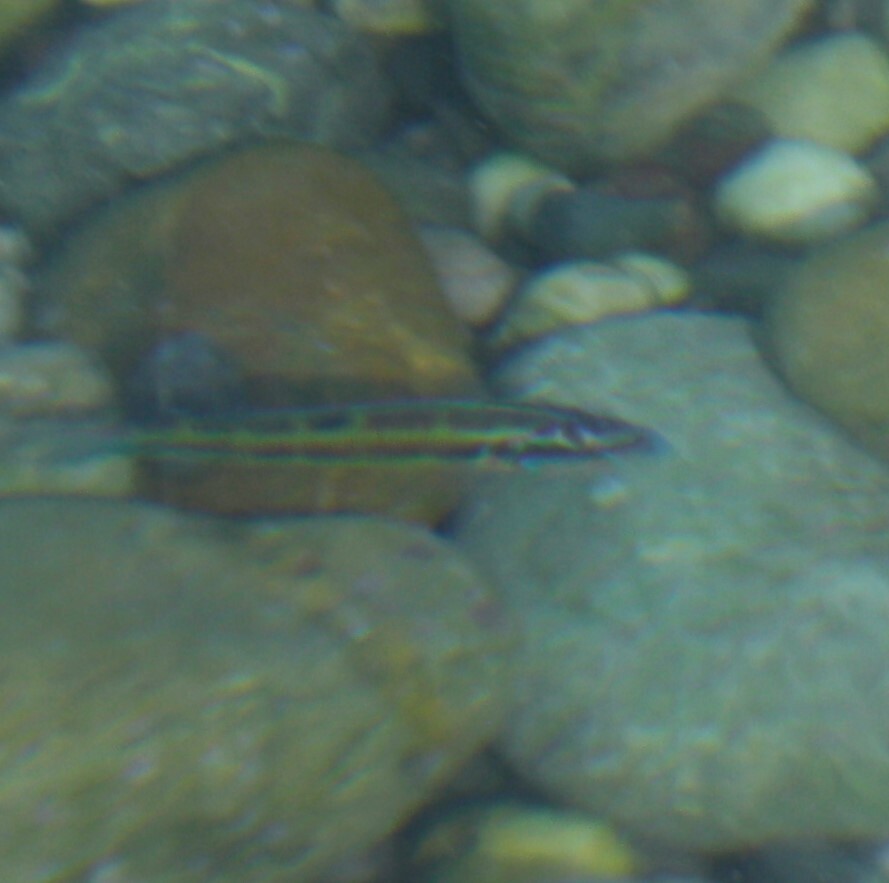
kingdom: Animalia
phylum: Chordata
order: Perciformes
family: Labridae
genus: Thalassoma
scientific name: Thalassoma pavo
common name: Ornate wrasse
